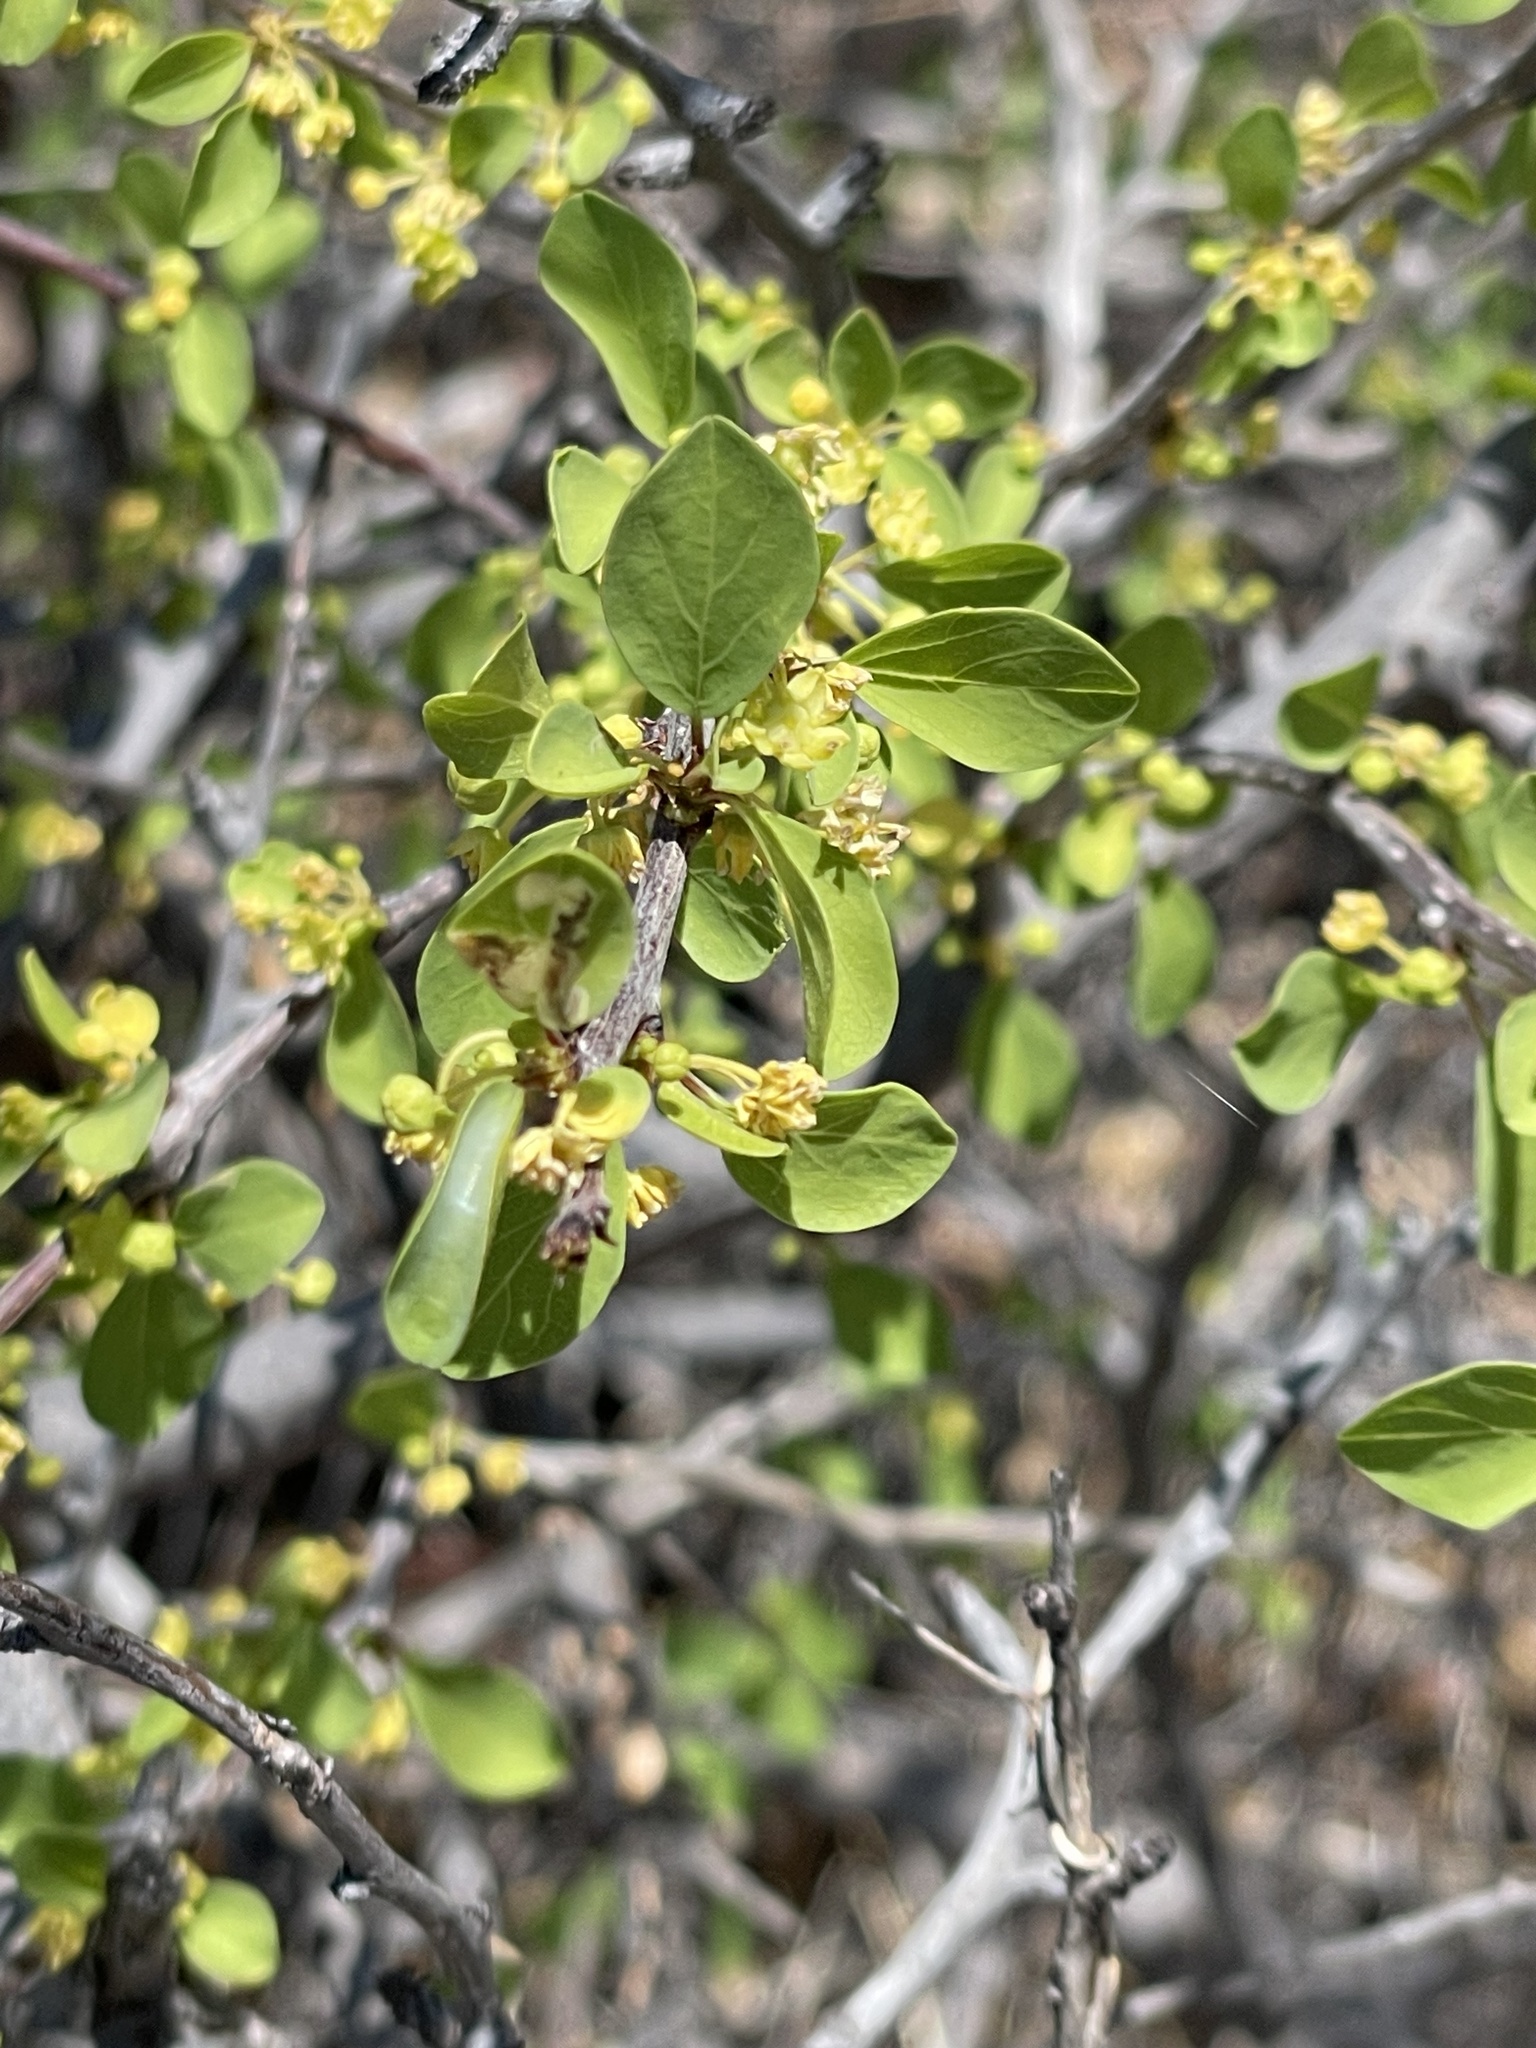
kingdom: Plantae
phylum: Tracheophyta
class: Magnoliopsida
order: Rosales
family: Rhamnaceae
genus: Colubrina
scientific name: Colubrina viridis
